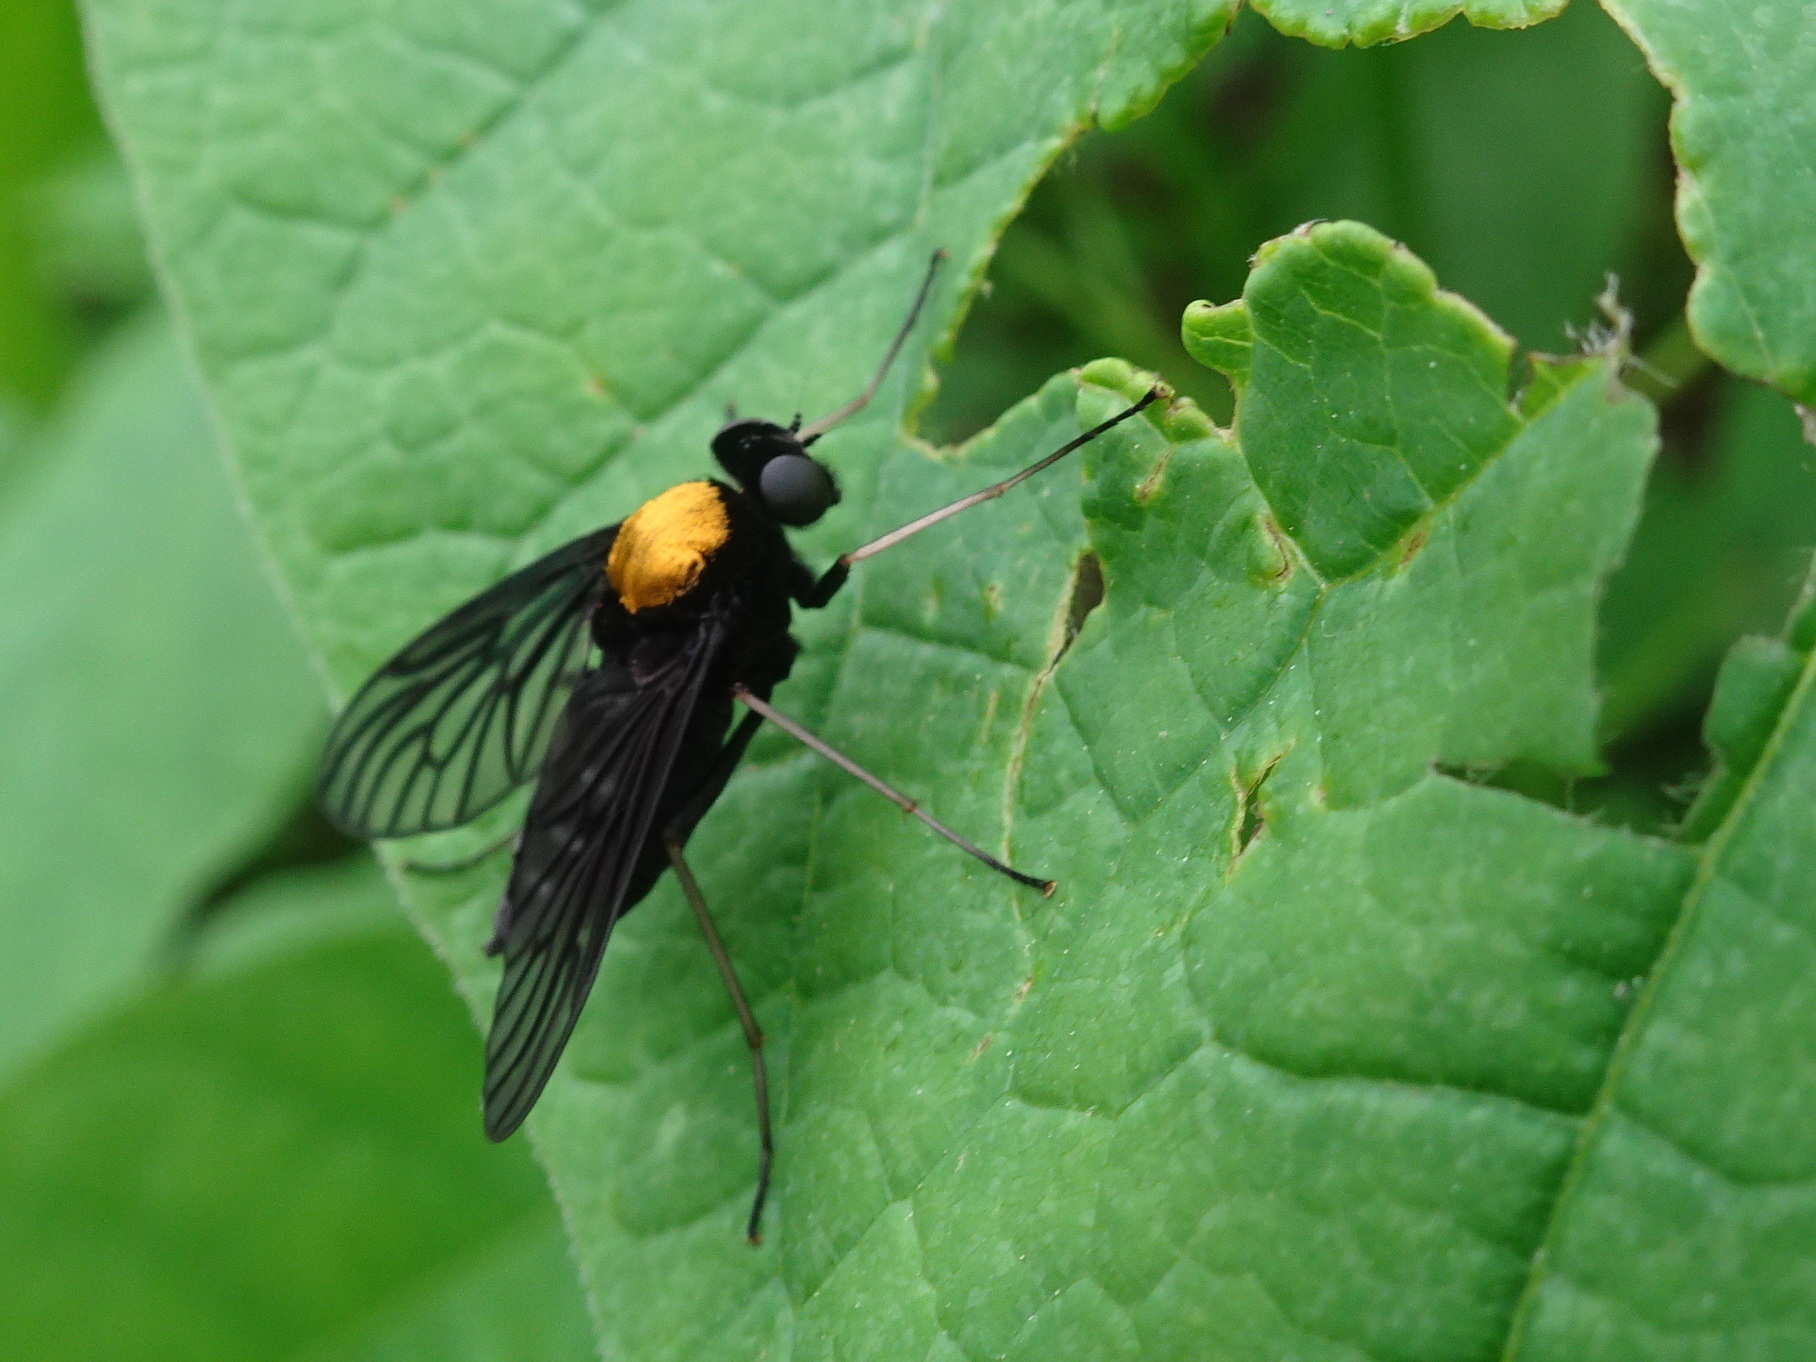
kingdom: Animalia
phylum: Arthropoda
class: Insecta
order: Diptera
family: Rhagionidae
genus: Chrysopilus
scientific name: Chrysopilus thoracicus
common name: Golden-backed snipe fly
